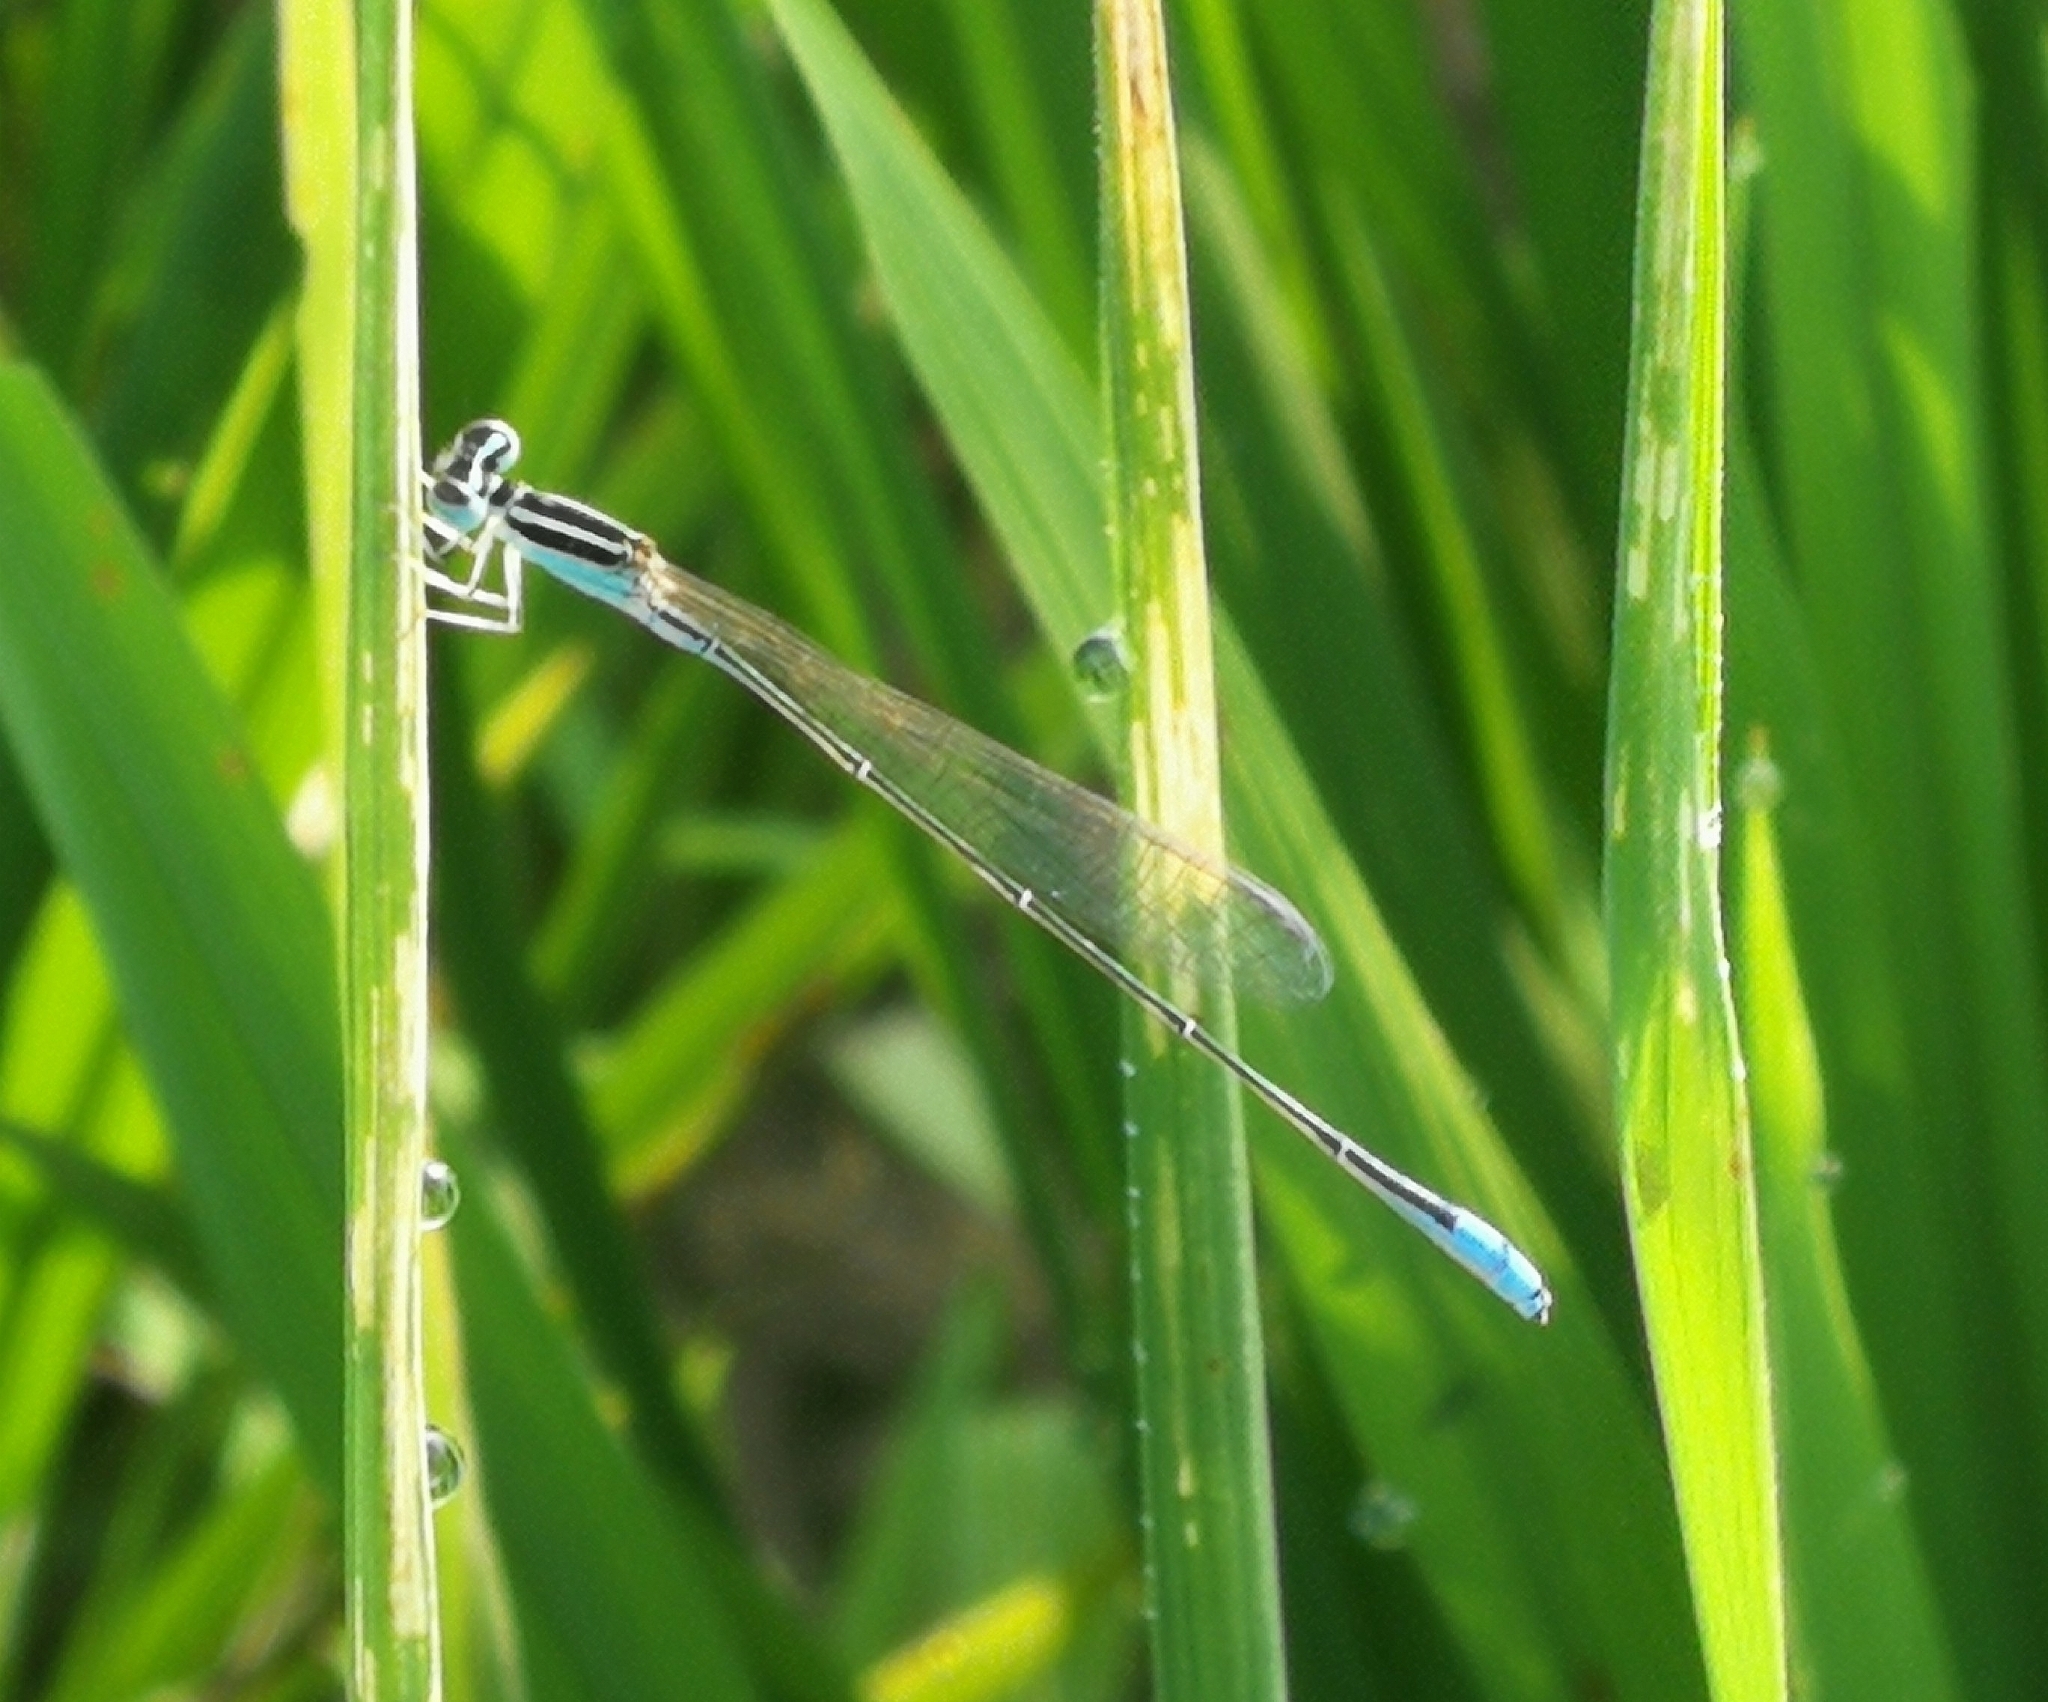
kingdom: Animalia
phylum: Arthropoda
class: Insecta
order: Odonata
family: Coenagrionidae
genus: Aciagrion
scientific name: Aciagrion occidentale
